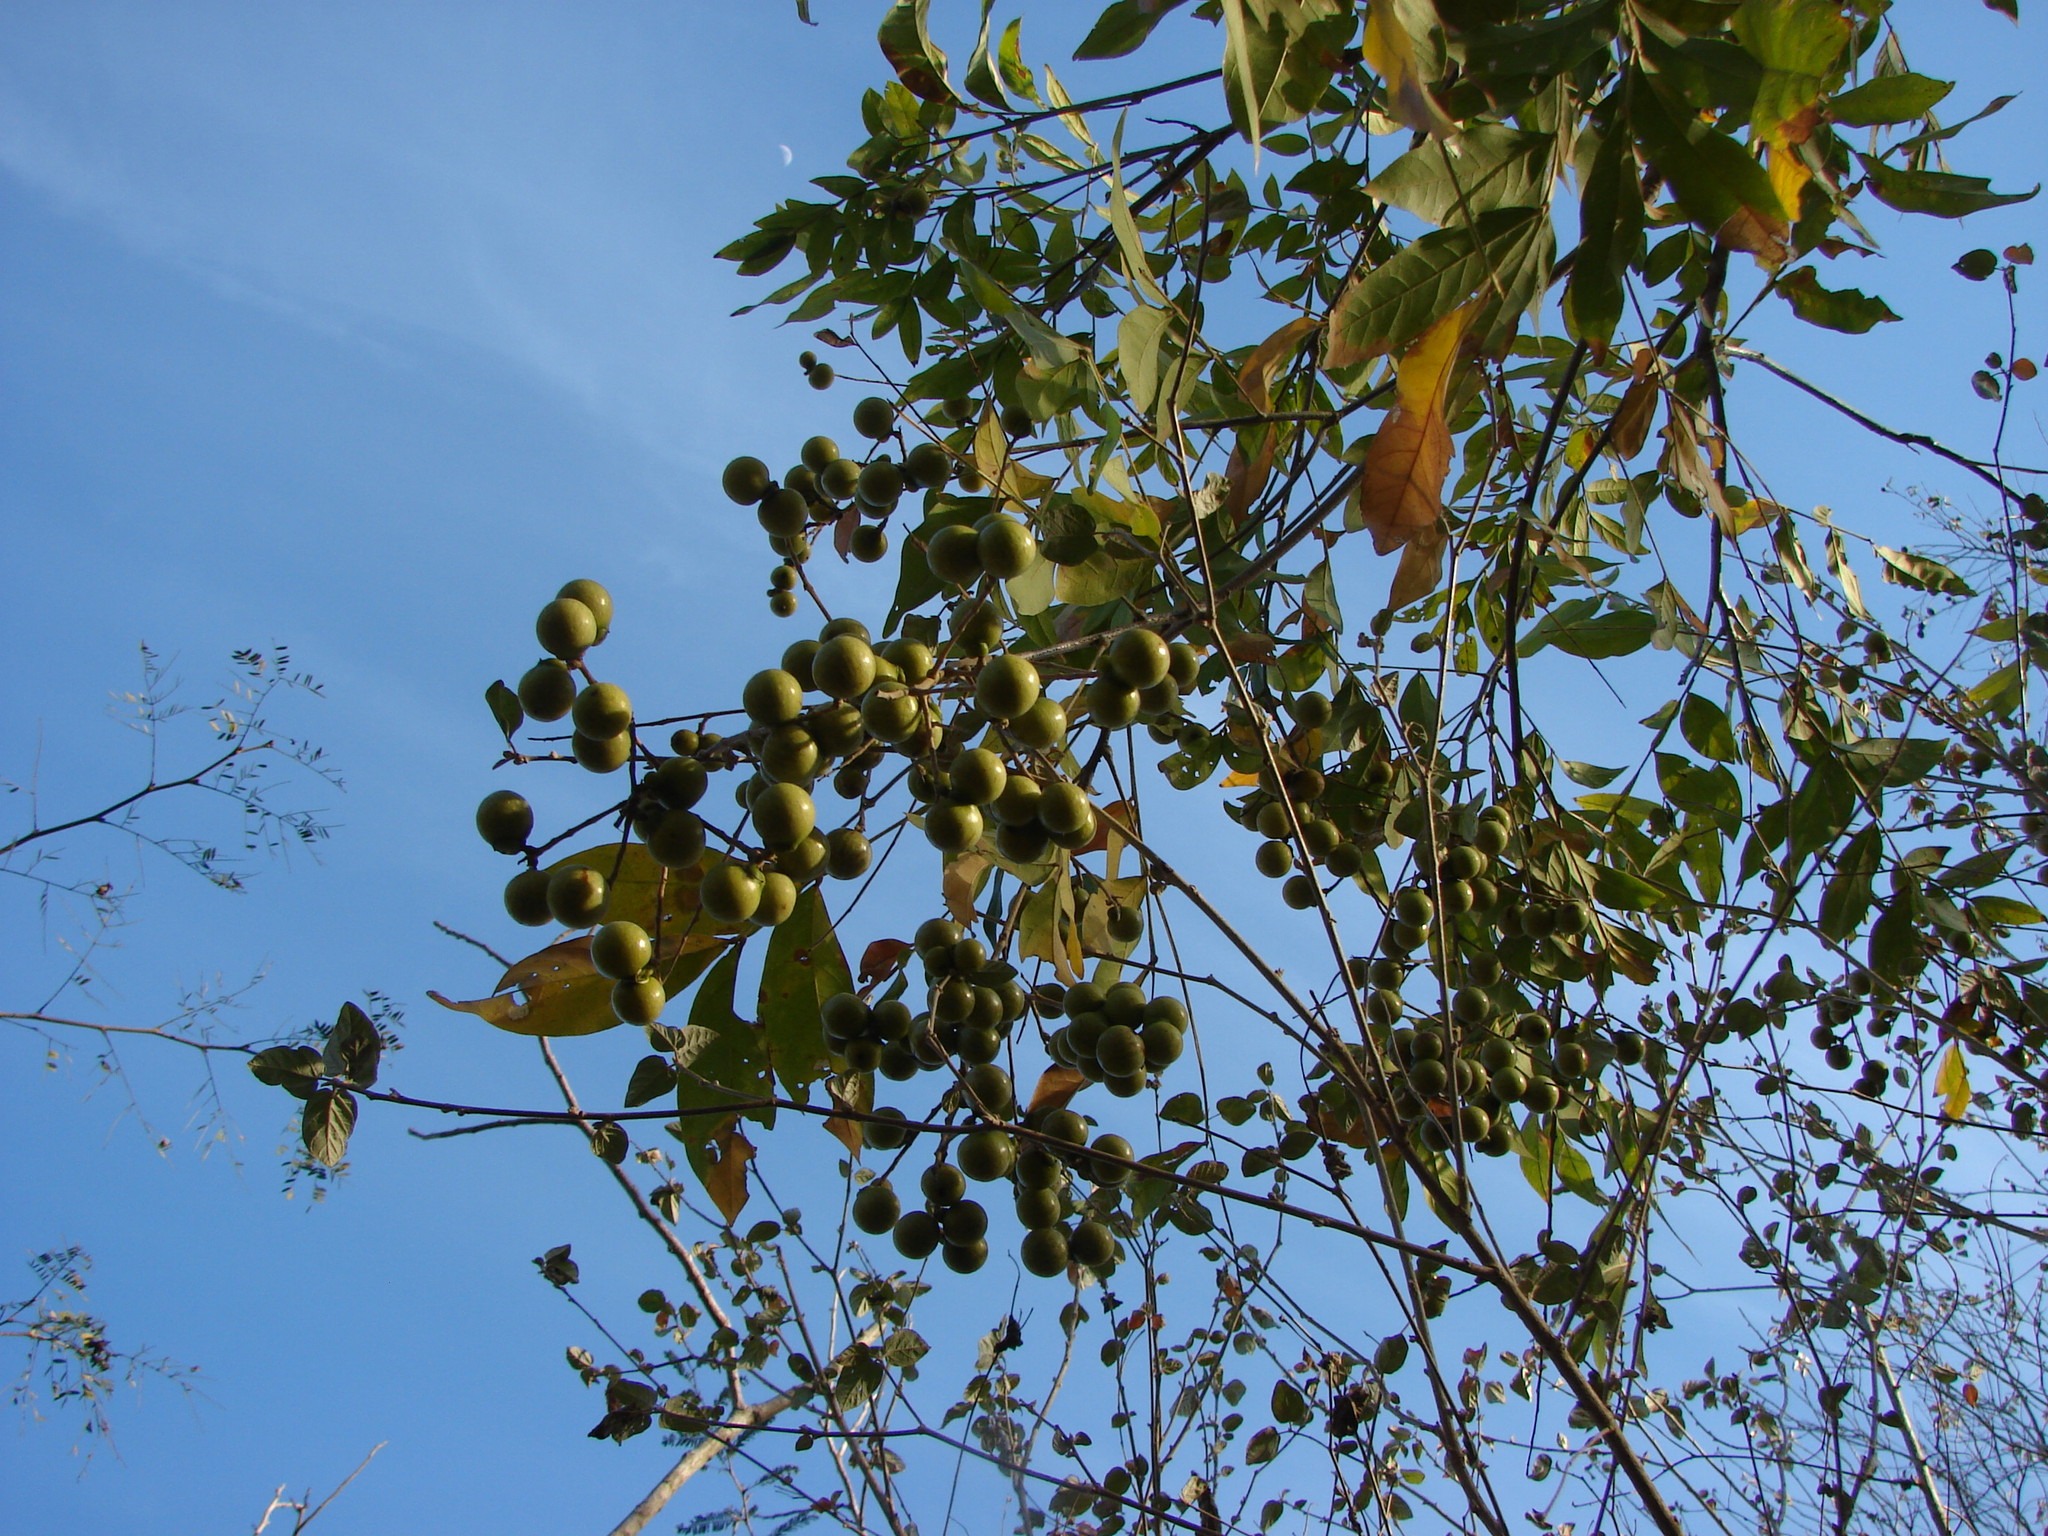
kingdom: Plantae
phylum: Tracheophyta
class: Magnoliopsida
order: Sapindales
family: Sapindaceae
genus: Sapindus
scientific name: Sapindus
